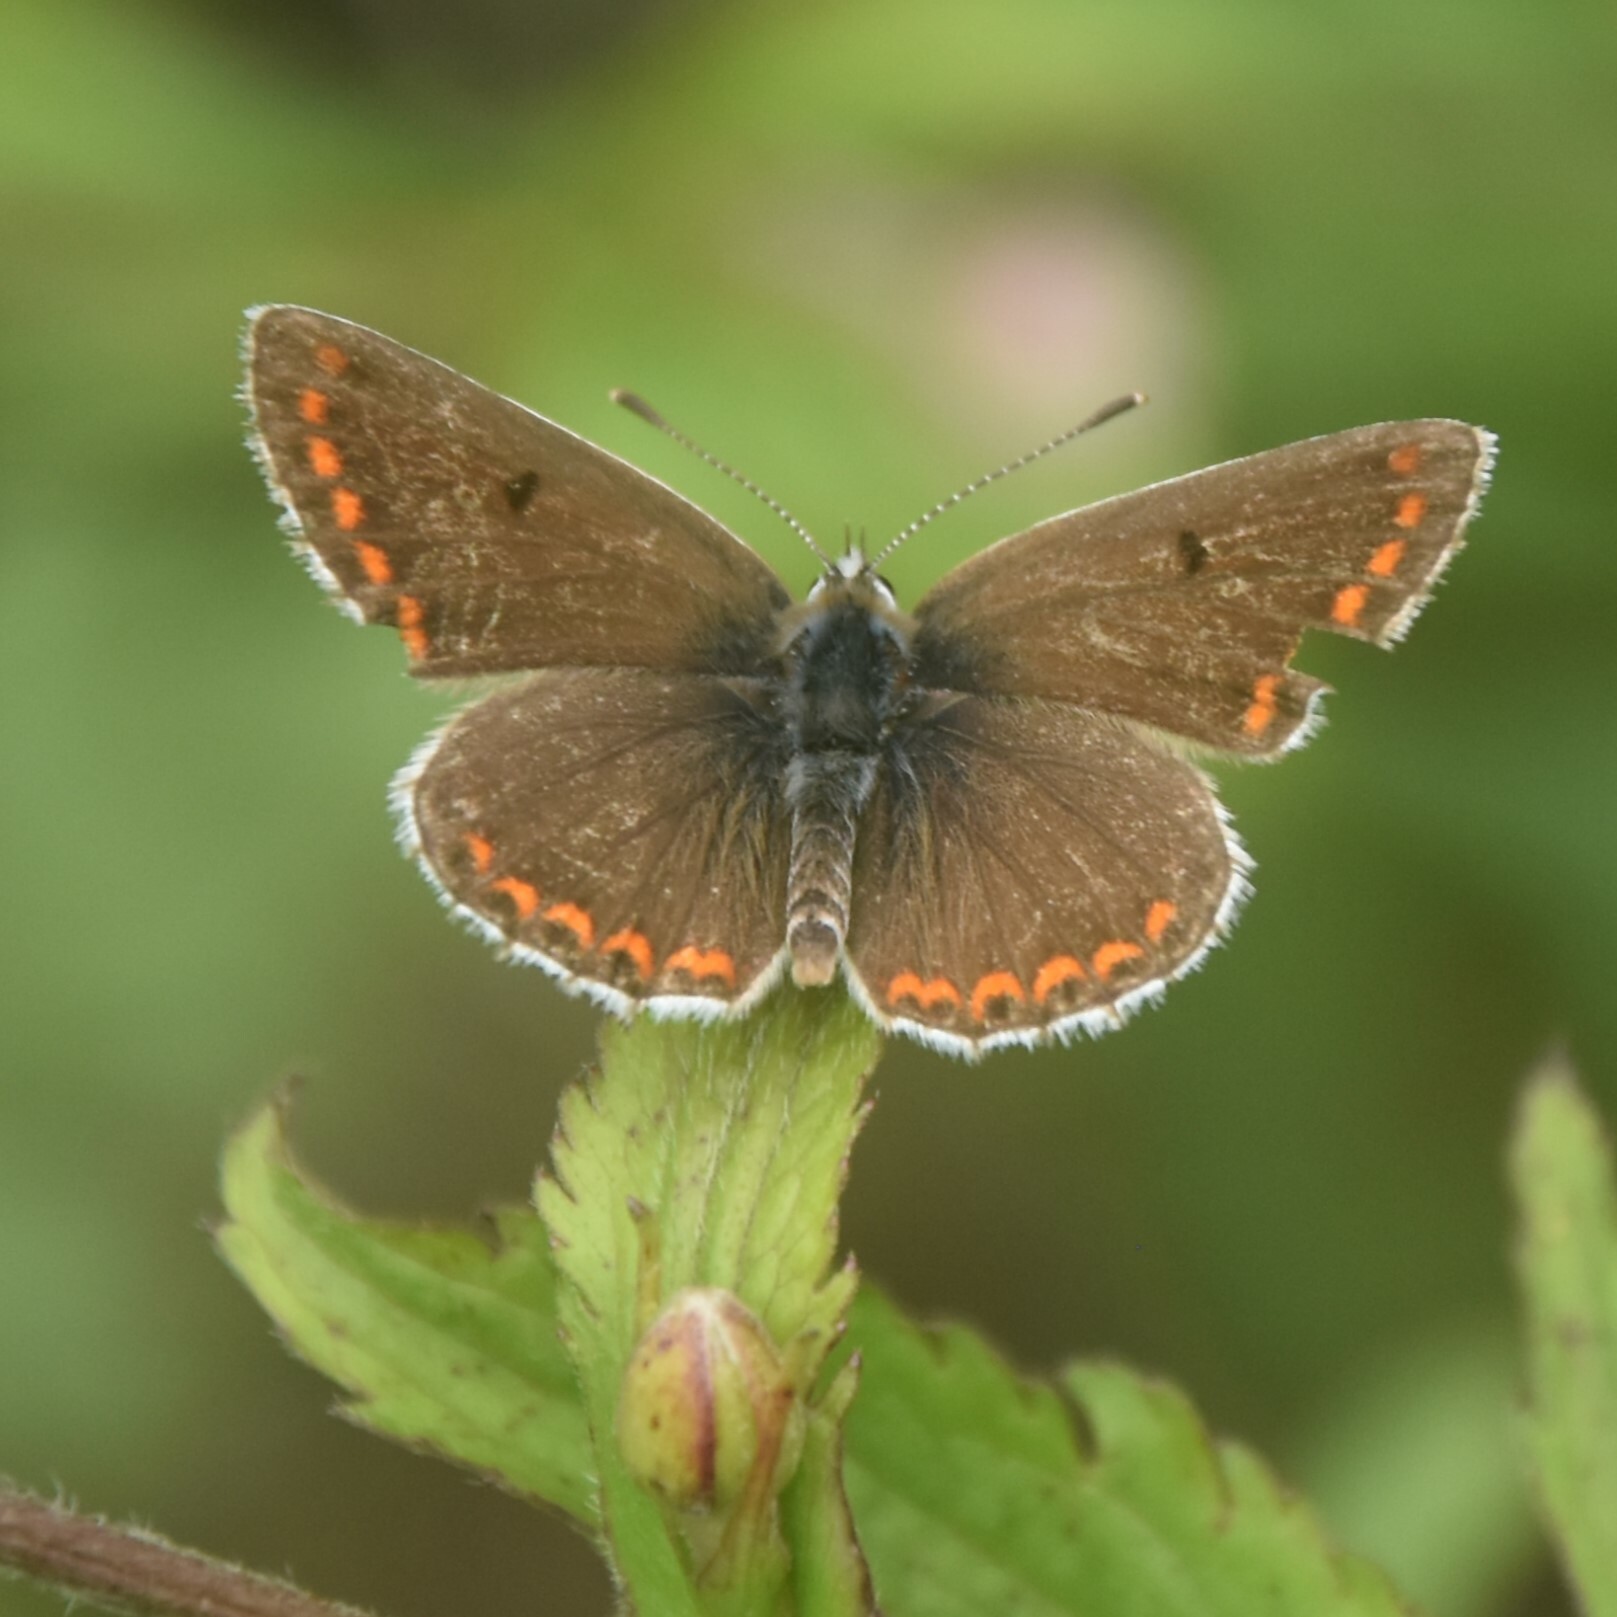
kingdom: Animalia
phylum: Arthropoda
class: Insecta
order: Lepidoptera
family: Lycaenidae
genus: Aricia
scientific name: Aricia agestis
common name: Brown argus
